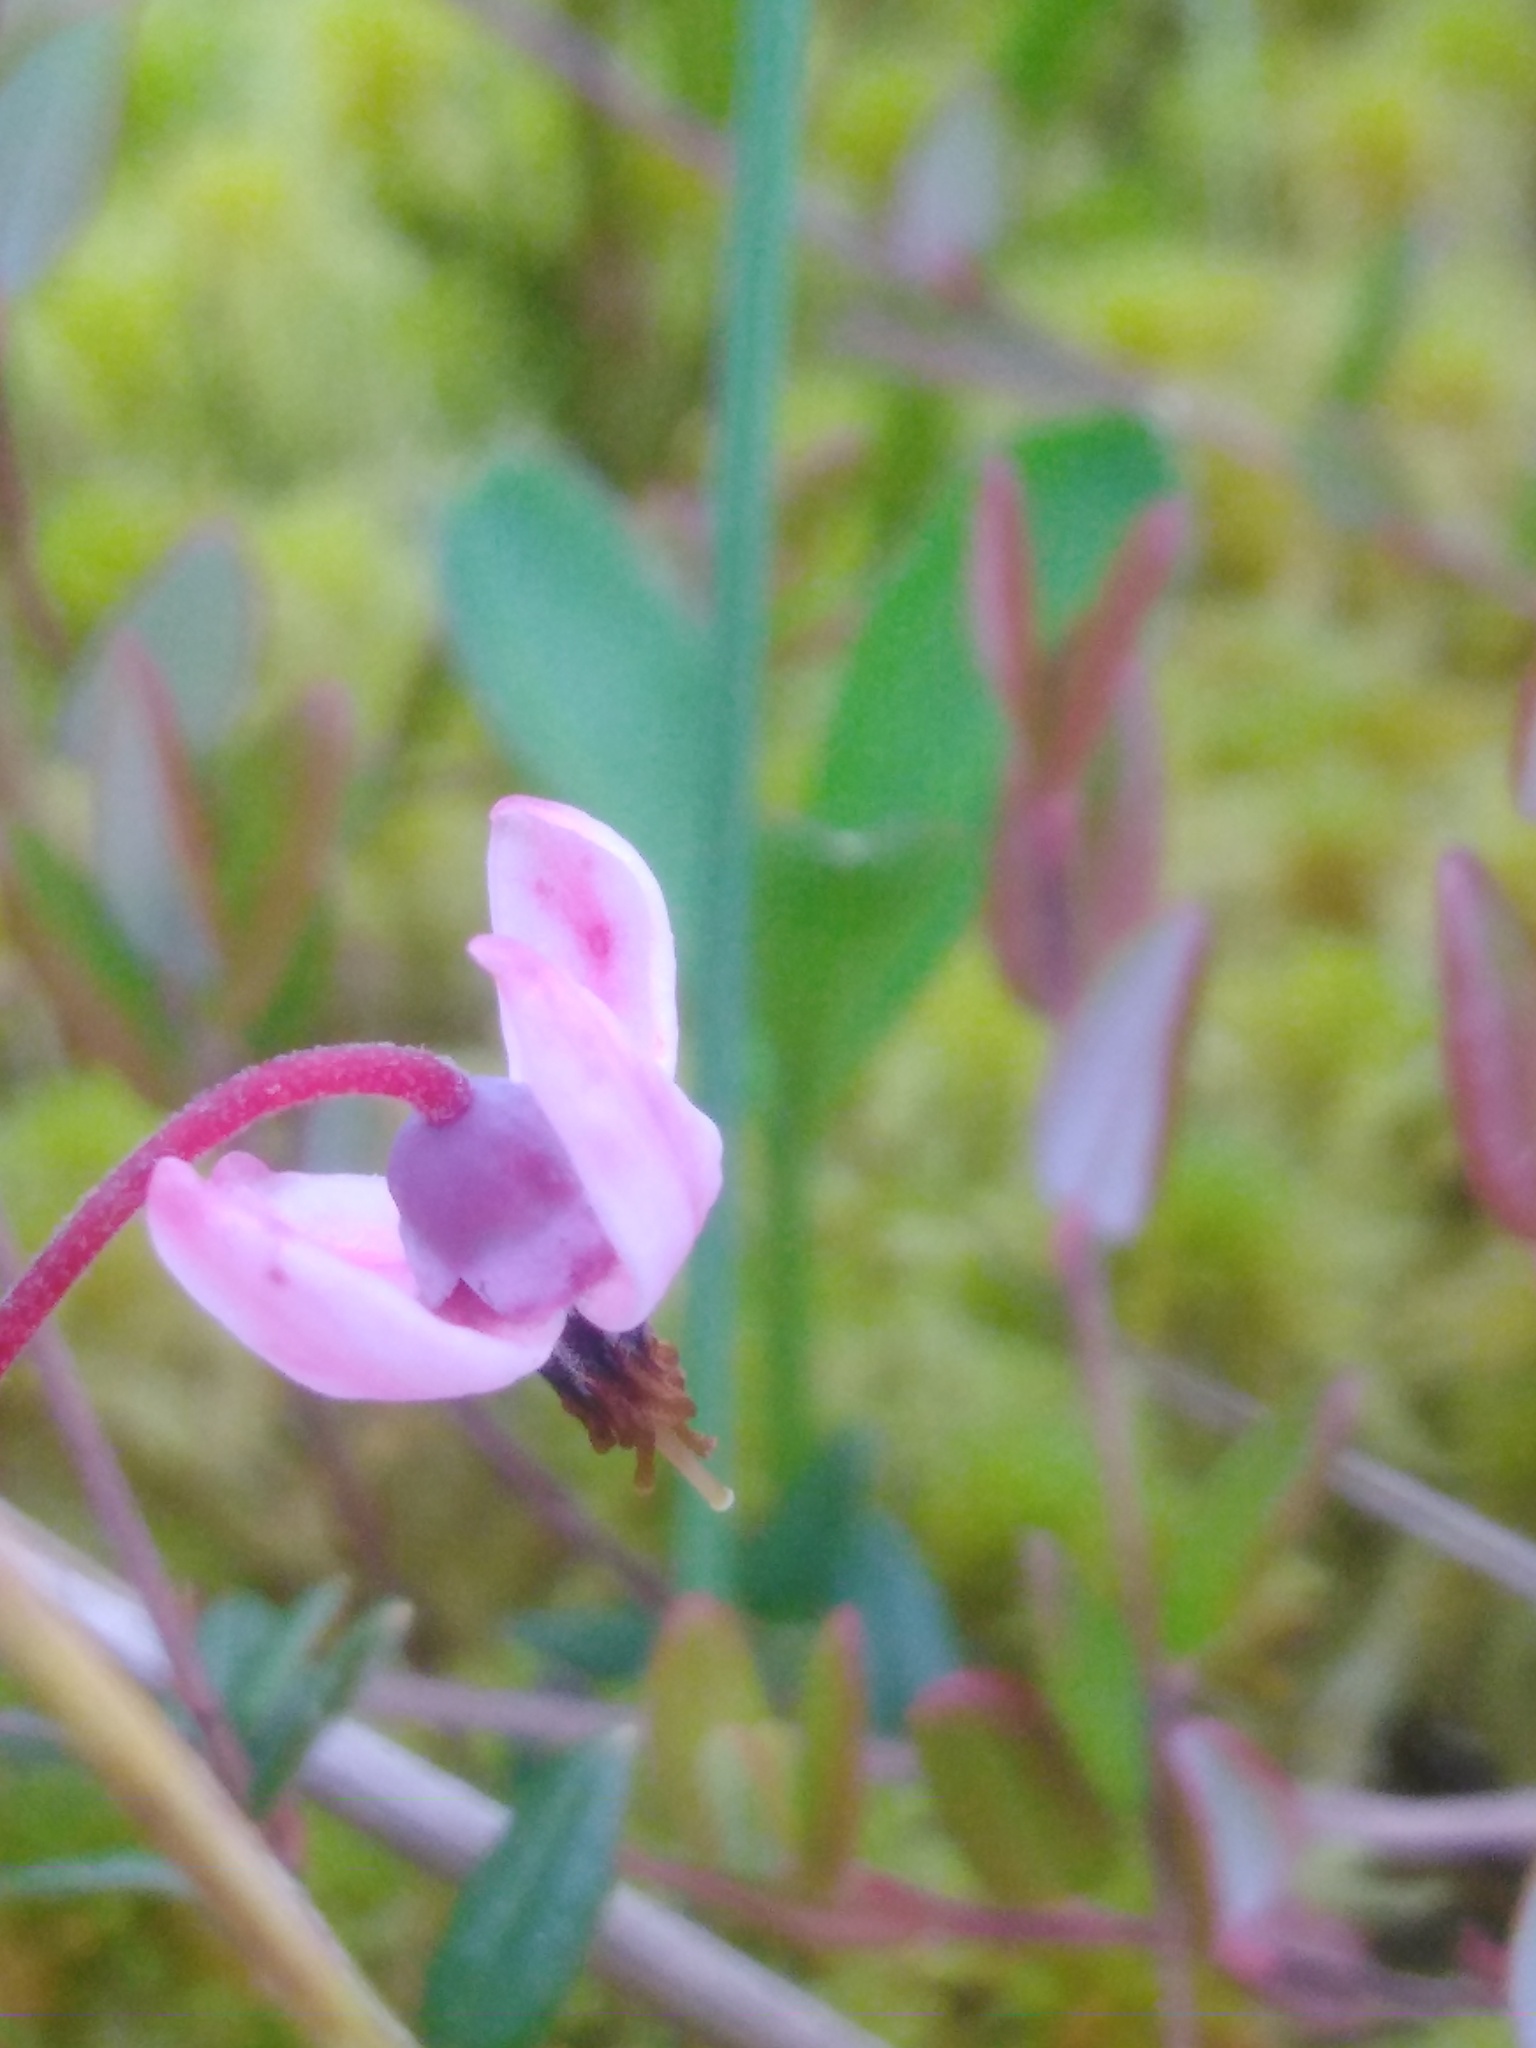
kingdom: Plantae
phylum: Tracheophyta
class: Magnoliopsida
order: Ericales
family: Ericaceae
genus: Vaccinium
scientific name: Vaccinium oxycoccos
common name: Cranberry
